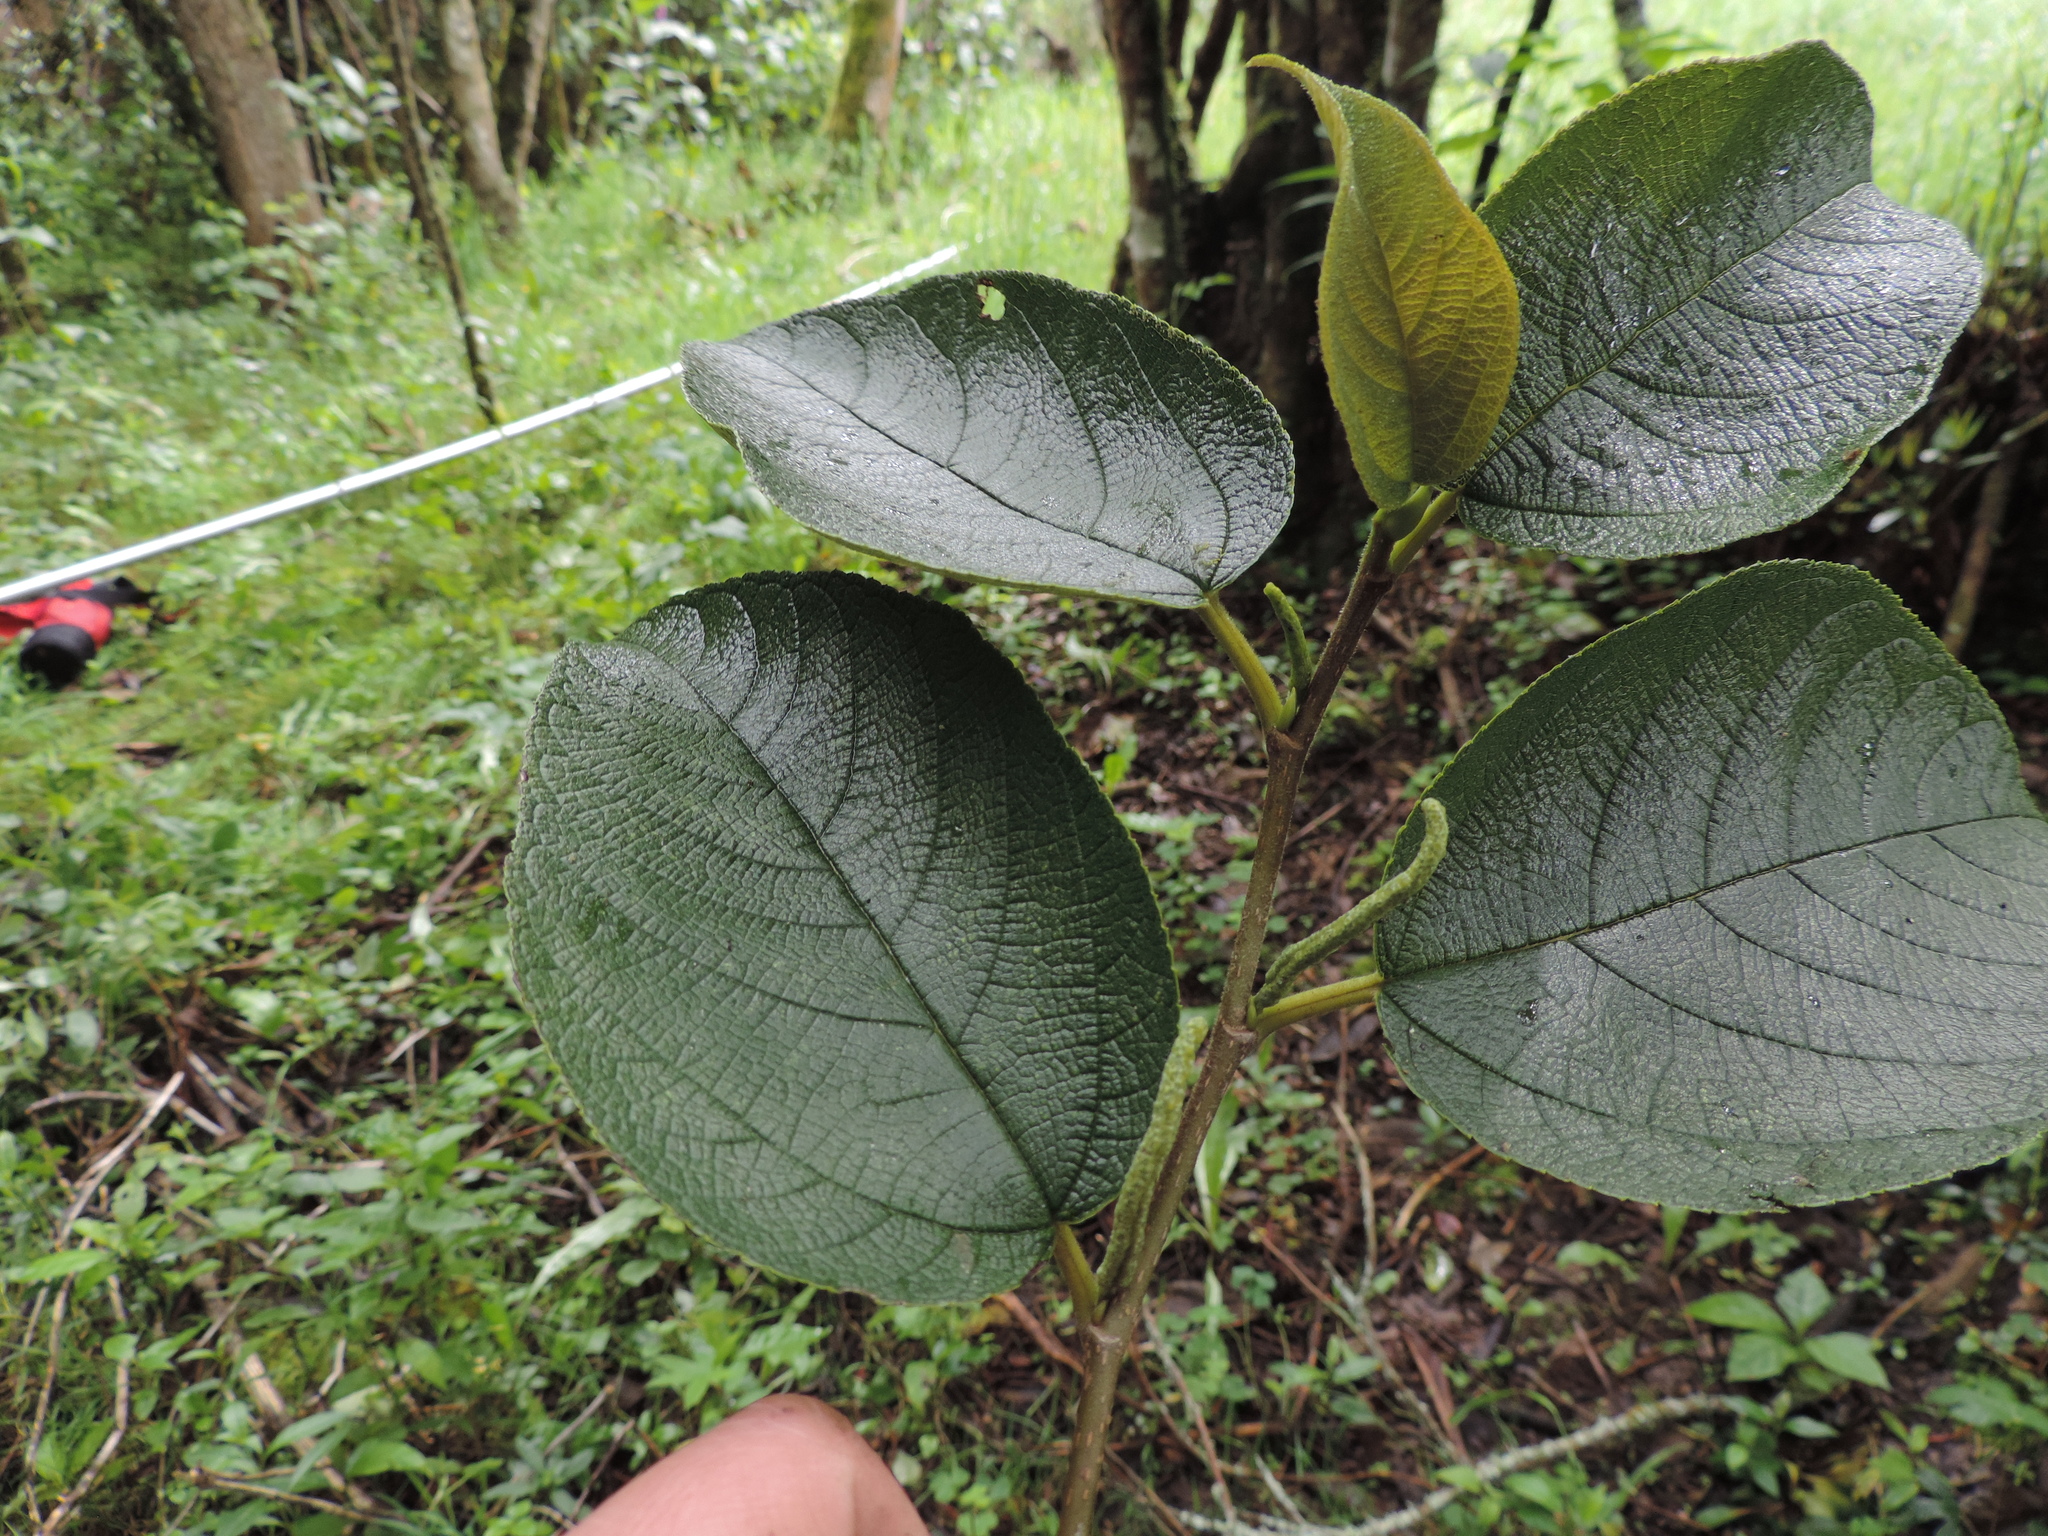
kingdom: Plantae
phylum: Tracheophyta
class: Magnoliopsida
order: Rosales
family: Moraceae
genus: Paratrophis
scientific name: Paratrophis insignis
